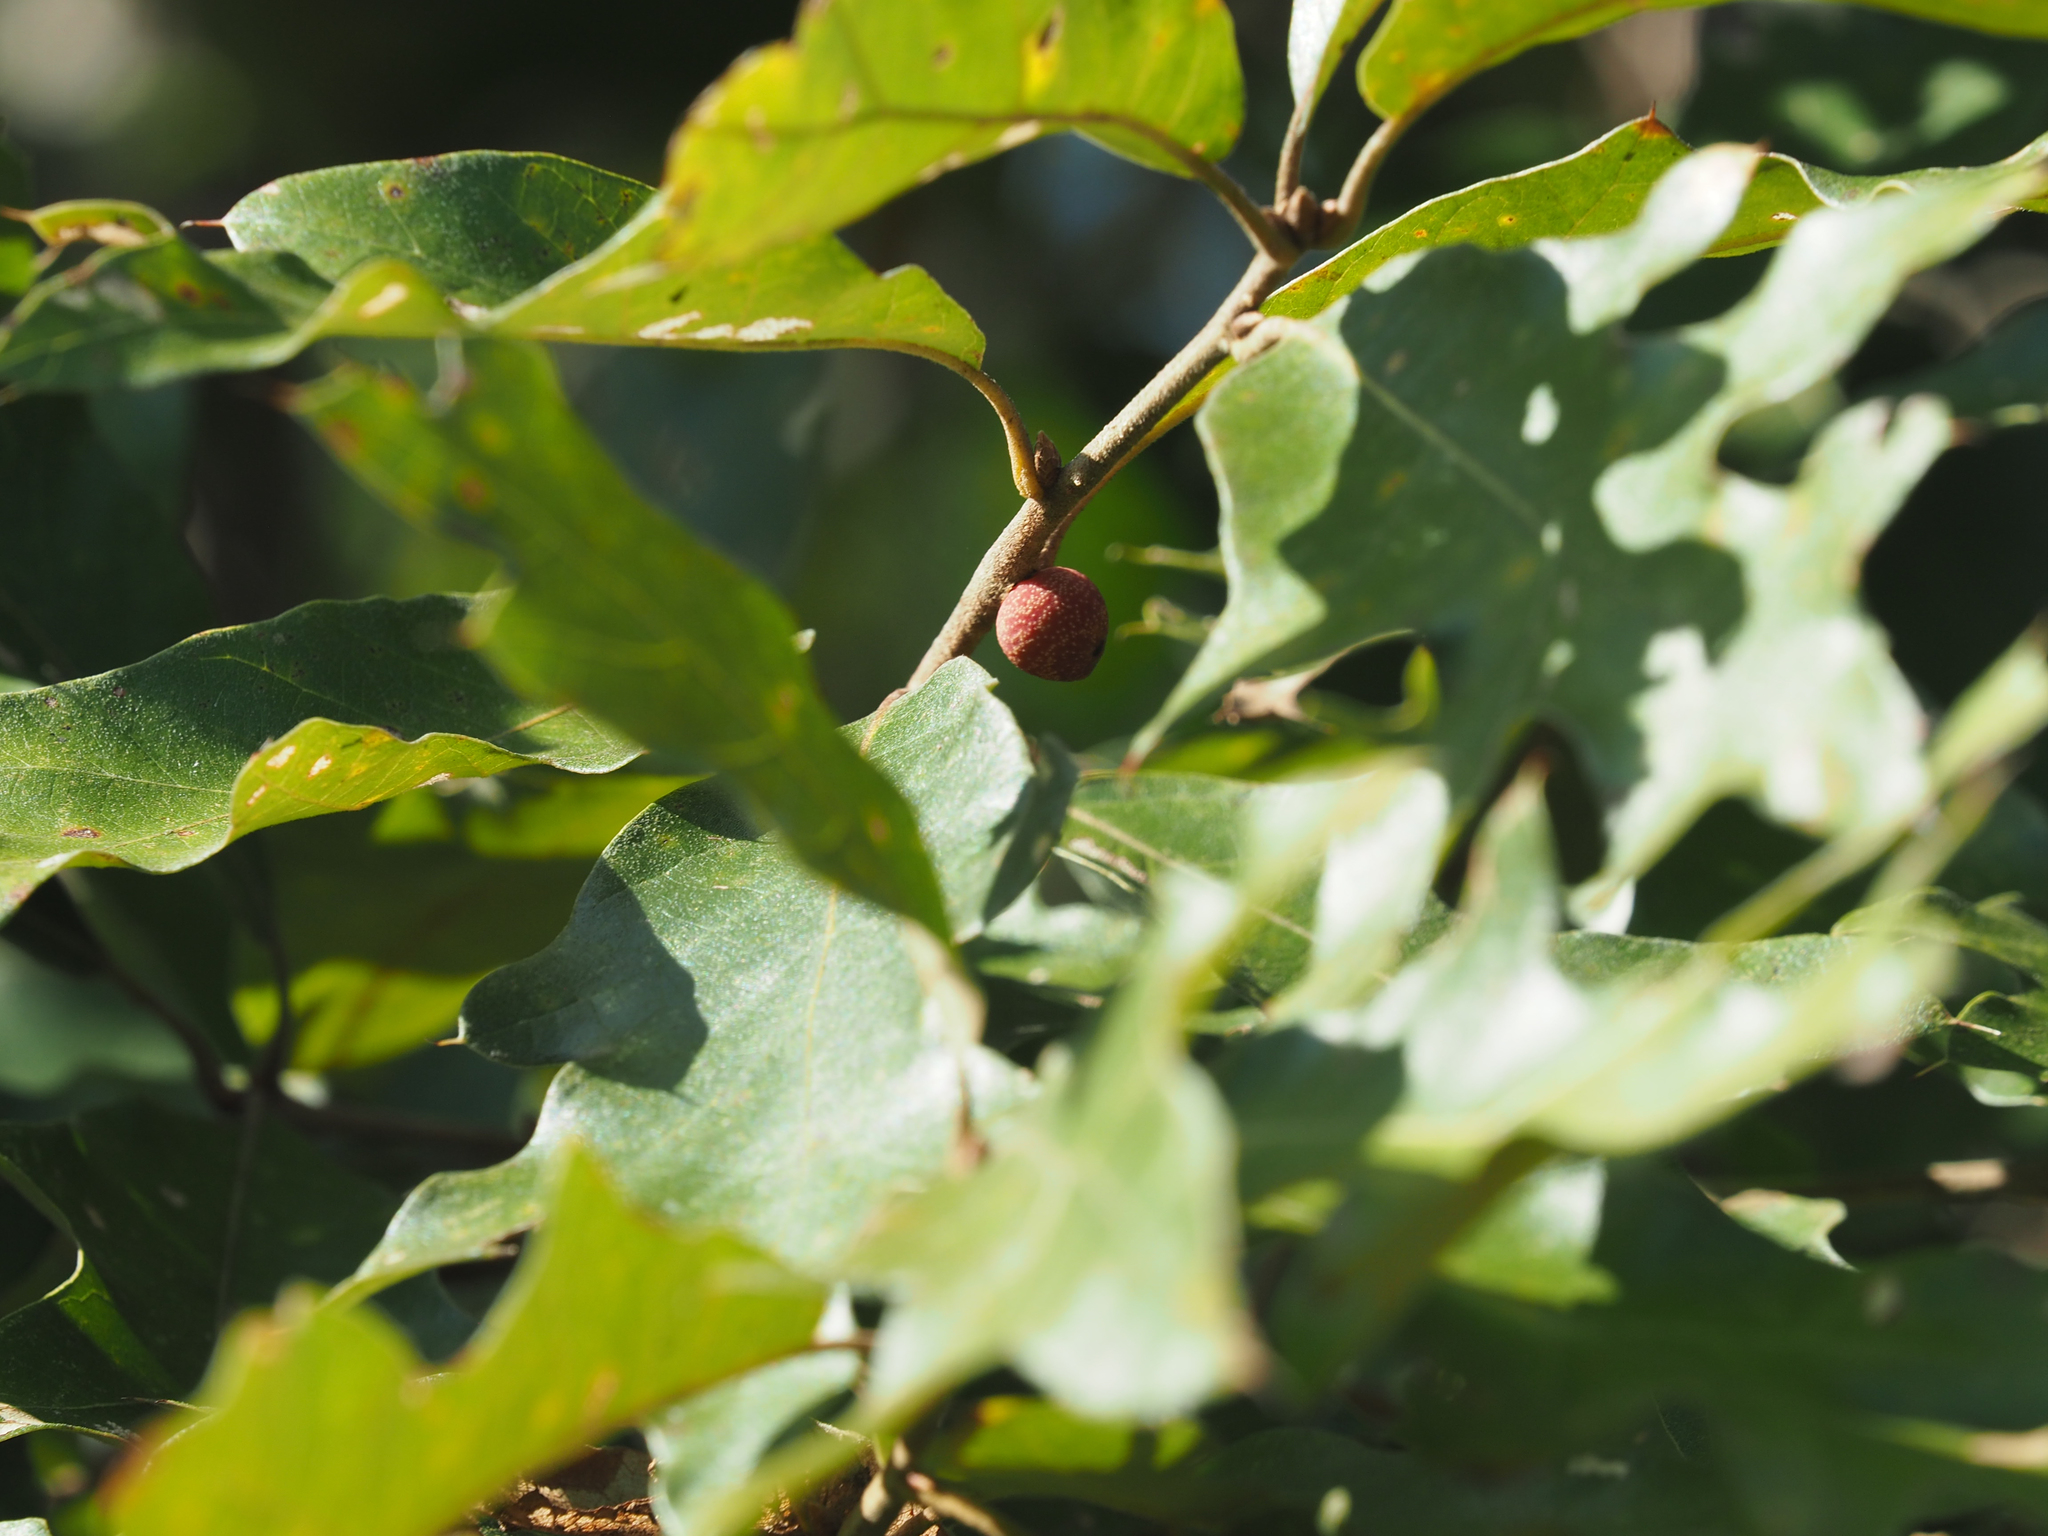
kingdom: Animalia
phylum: Arthropoda
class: Insecta
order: Hymenoptera
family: Cynipidae
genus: Kokkocynips
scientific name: Kokkocynips imbricariae
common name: Banded bullet gall wasp
